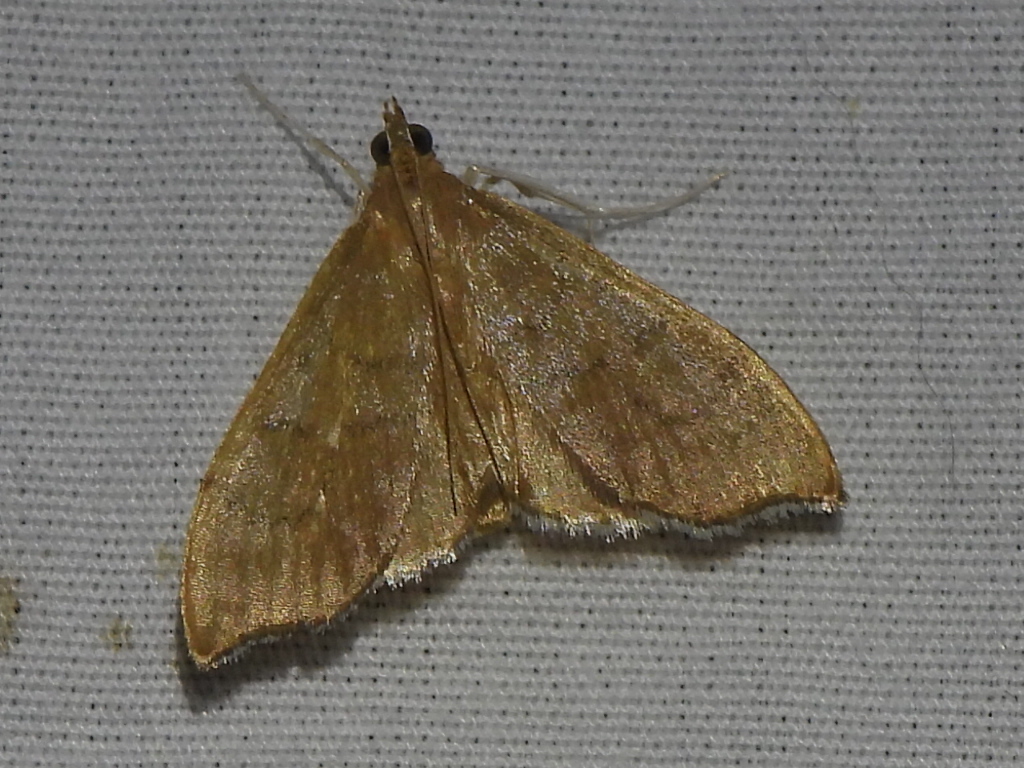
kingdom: Animalia
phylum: Arthropoda
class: Insecta
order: Lepidoptera
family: Crambidae
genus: Sericoplaga
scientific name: Sericoplaga externalis
